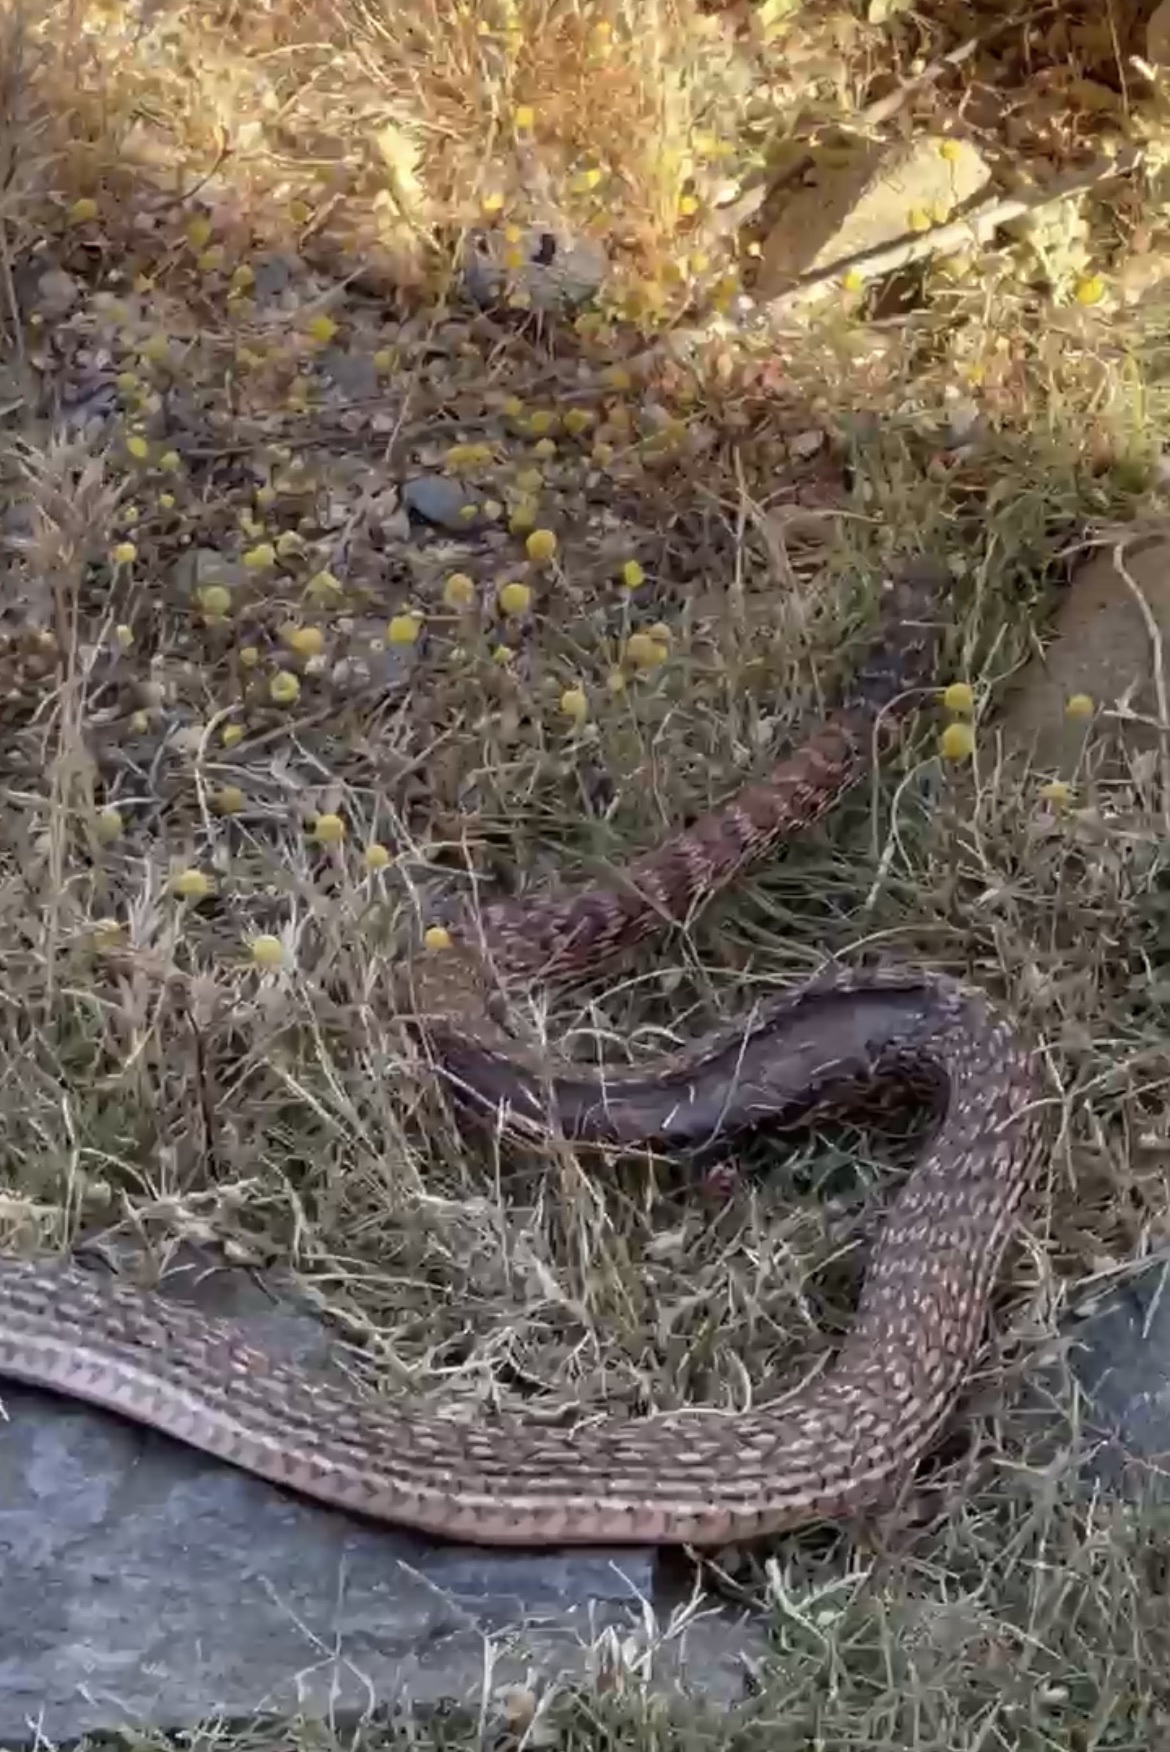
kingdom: Animalia
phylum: Chordata
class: Squamata
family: Colubridae
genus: Masticophis
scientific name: Masticophis flagellum
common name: Coachwhip
